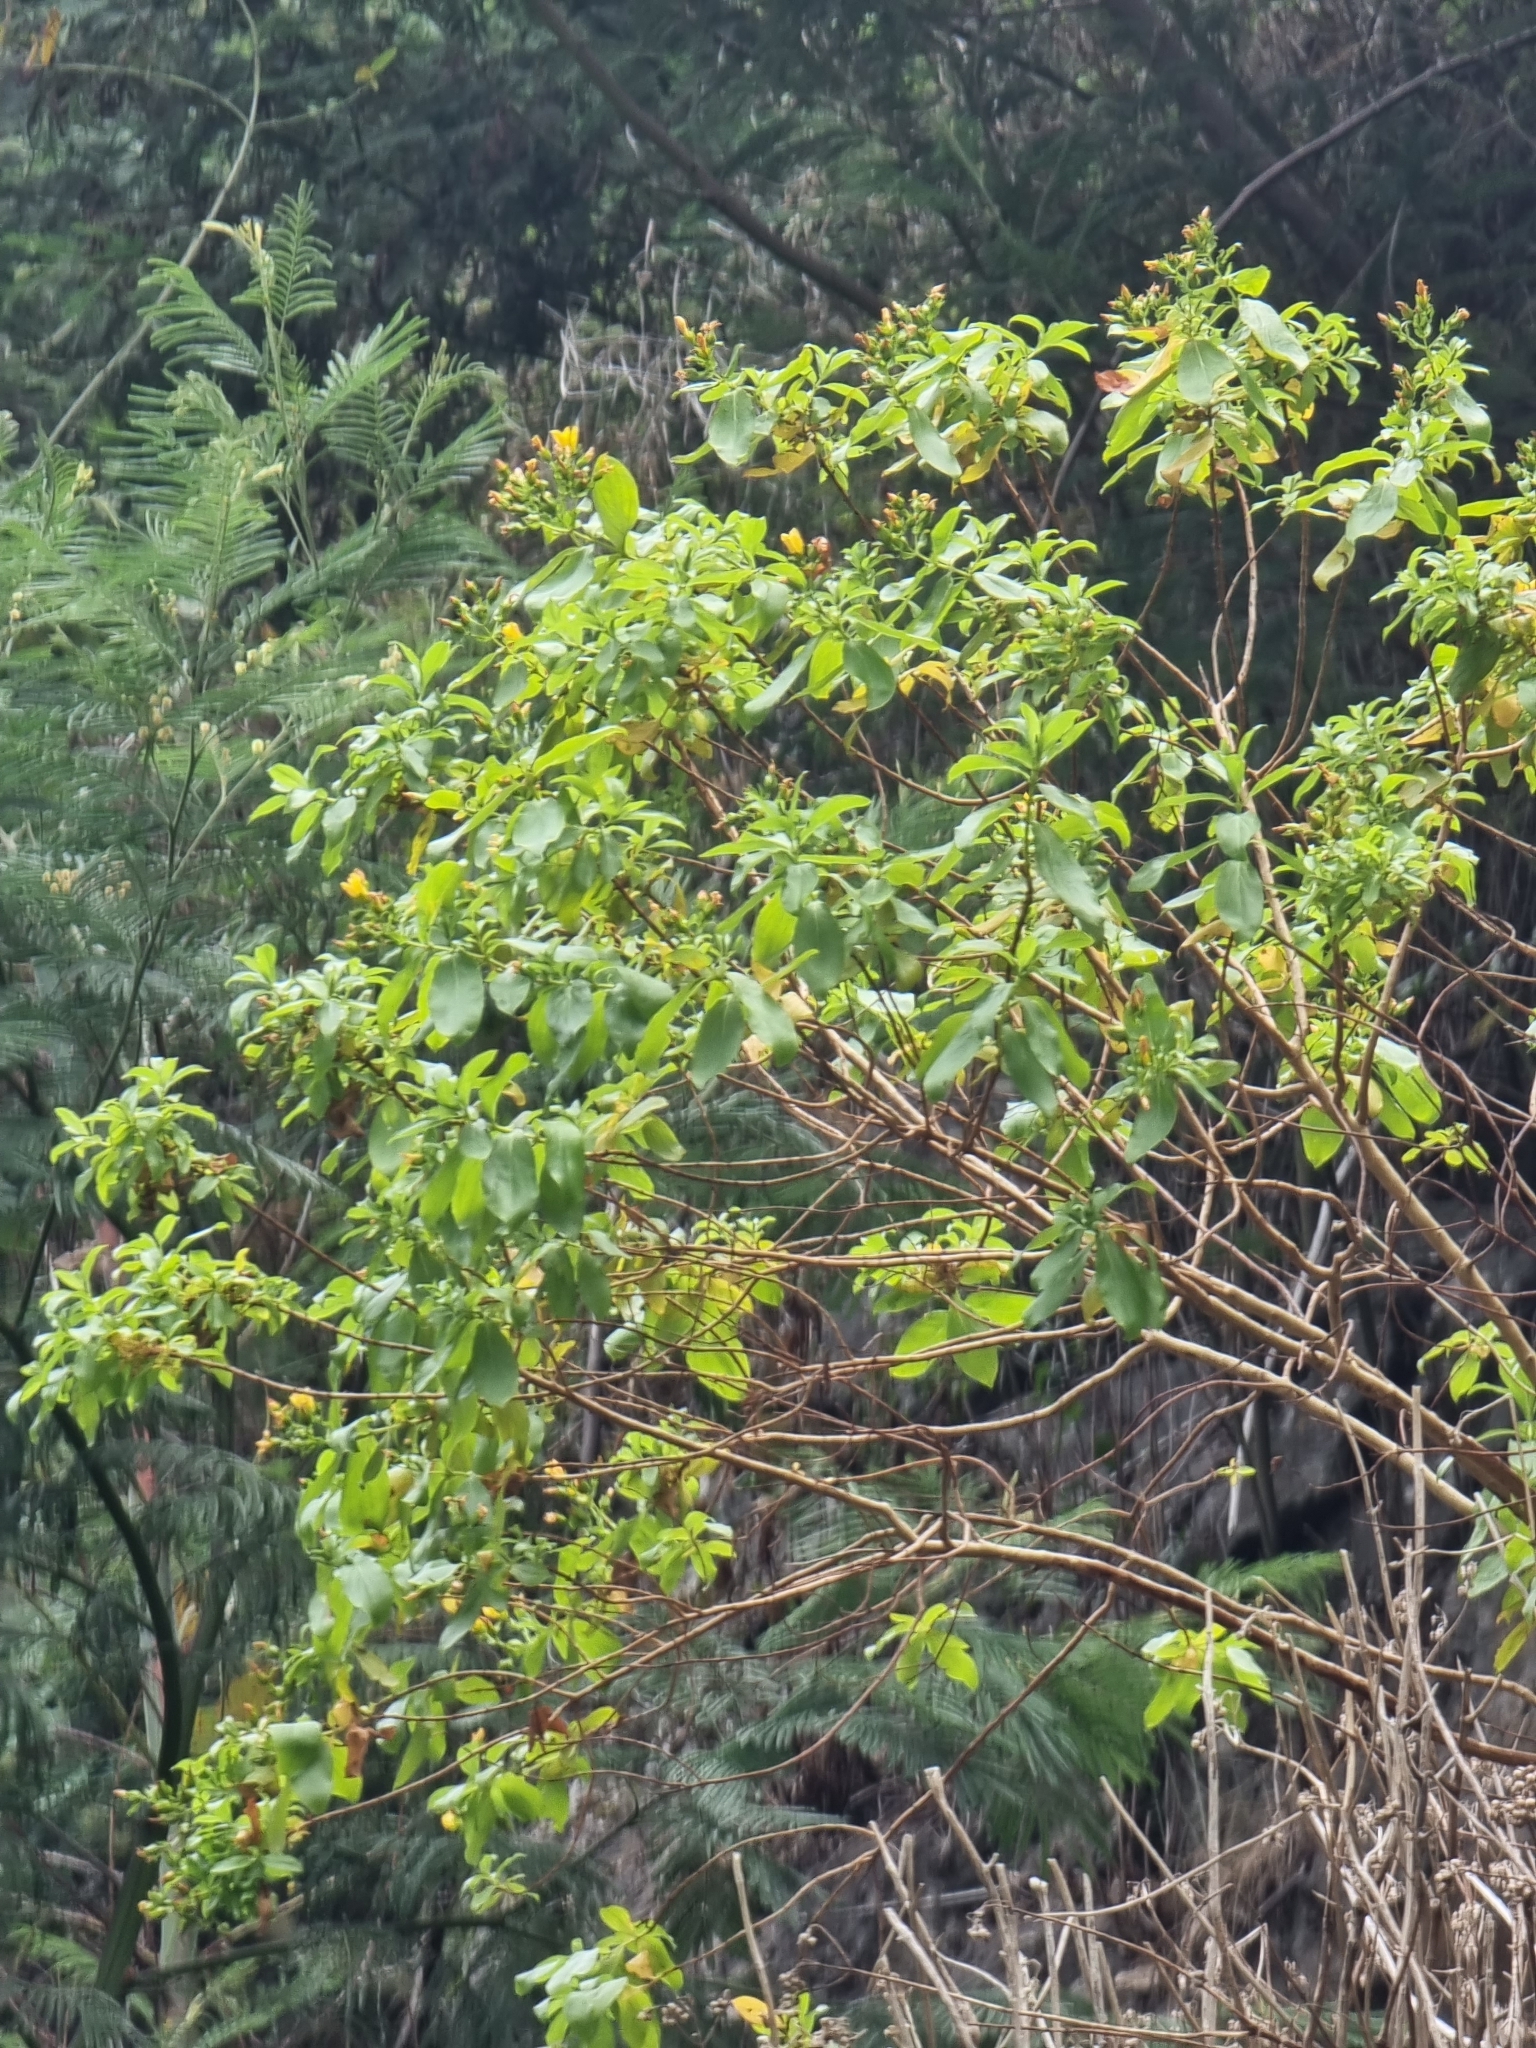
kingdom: Plantae
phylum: Tracheophyta
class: Magnoliopsida
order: Malpighiales
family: Hypericaceae
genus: Hypericum
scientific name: Hypericum glandulosum
